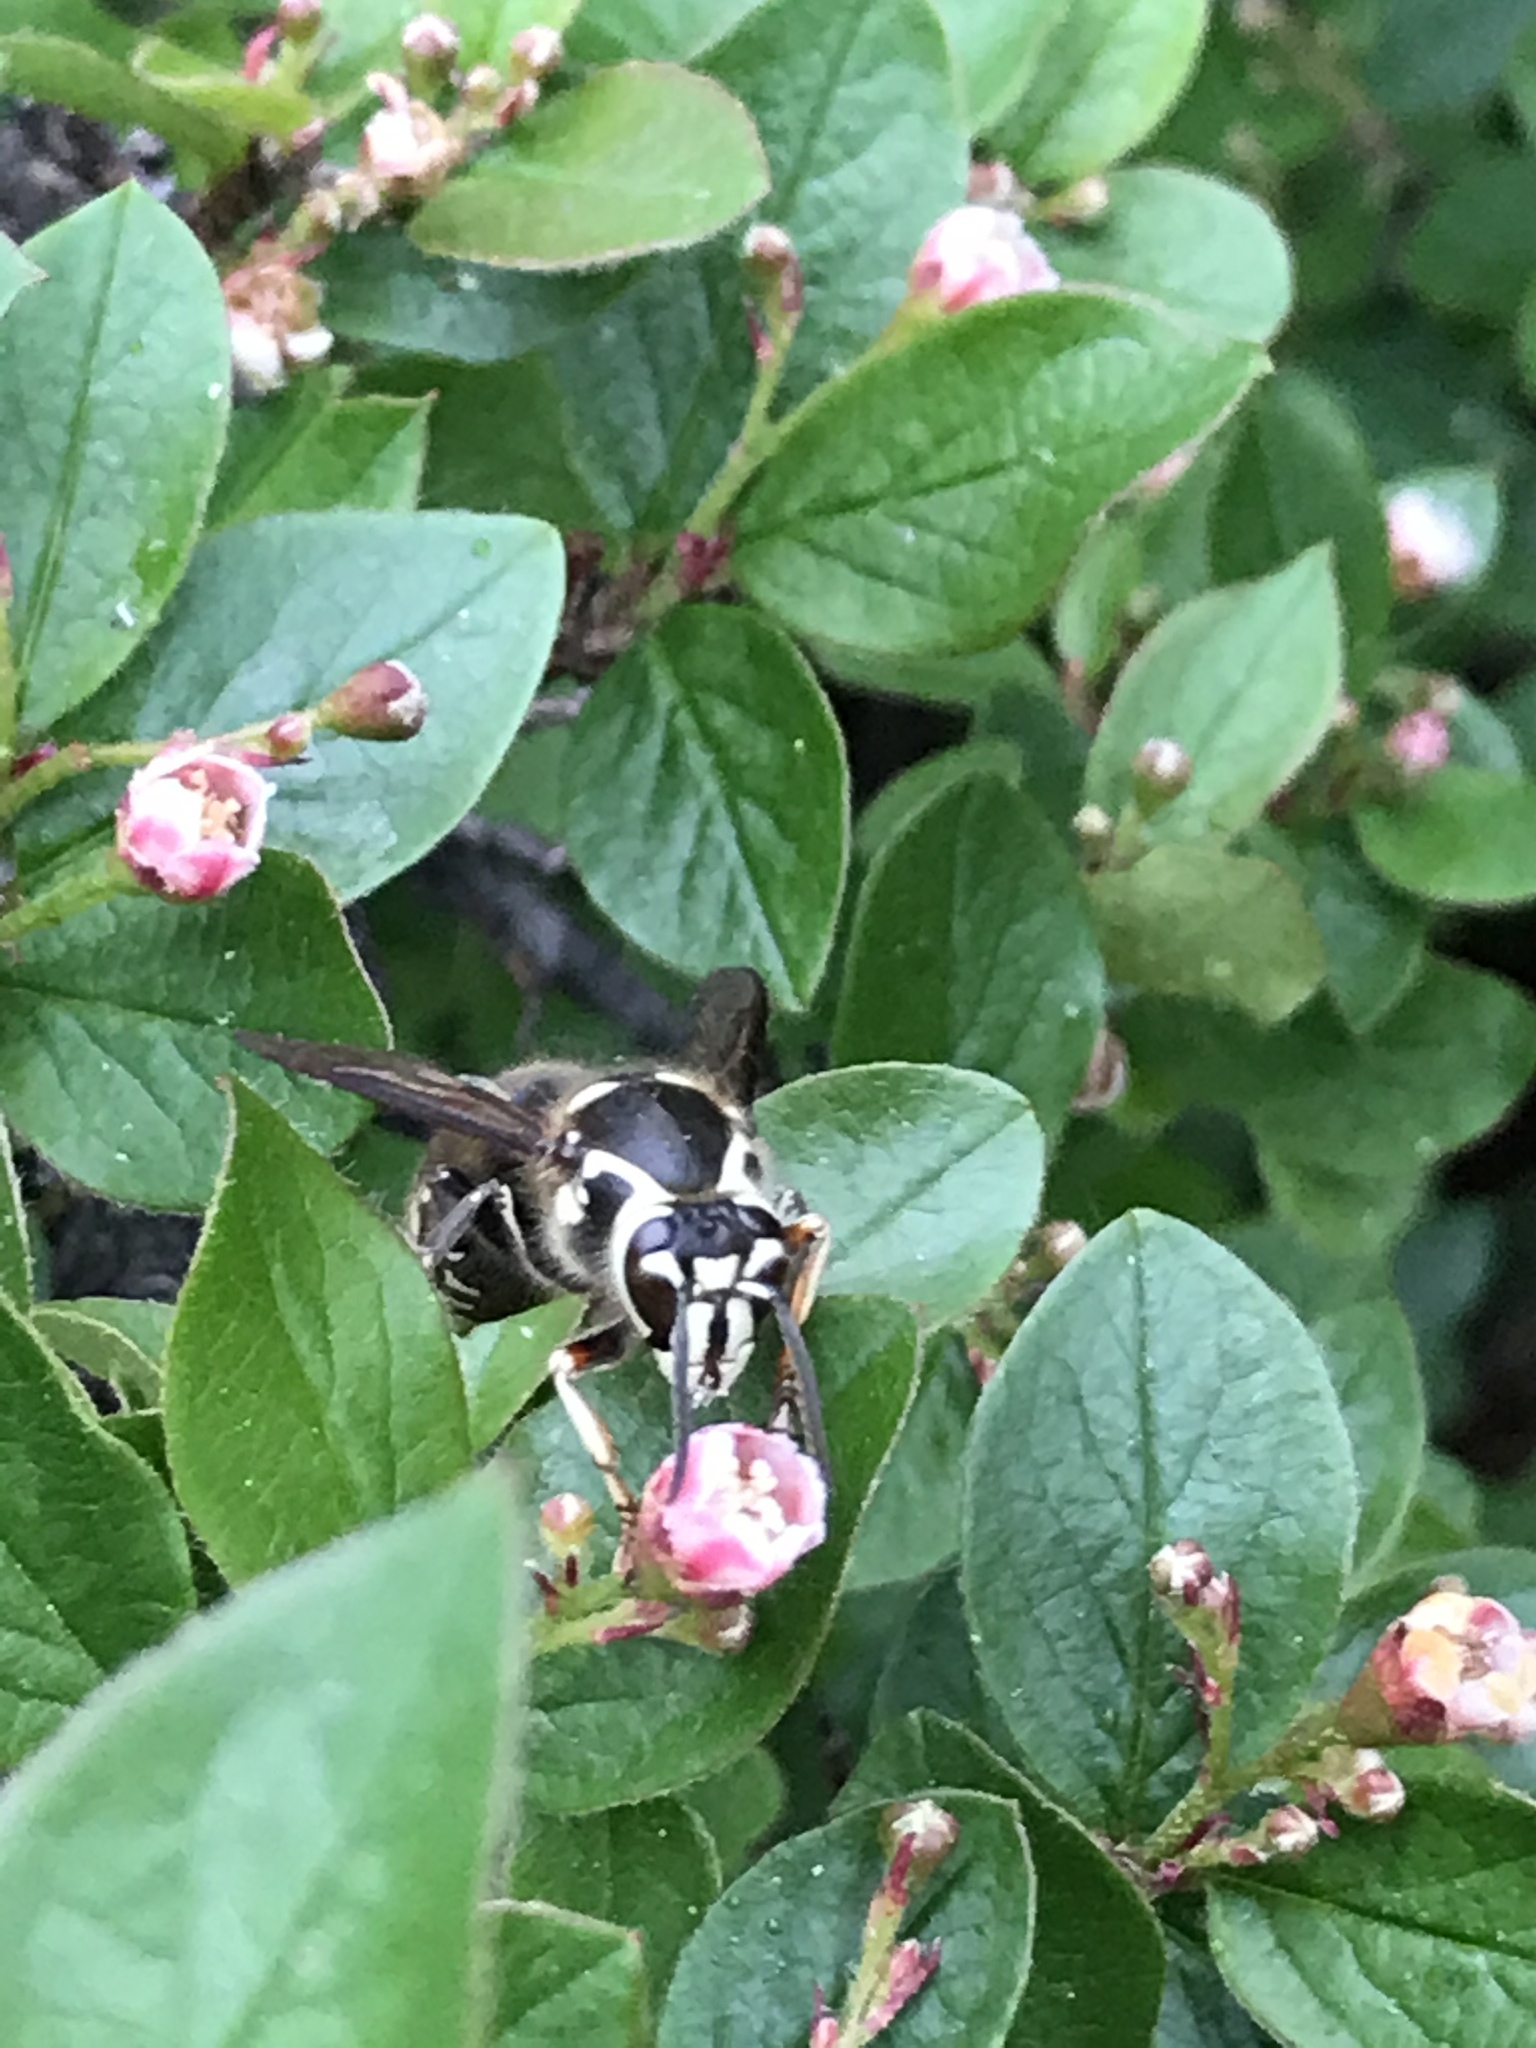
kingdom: Animalia
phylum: Arthropoda
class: Insecta
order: Hymenoptera
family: Vespidae
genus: Dolichovespula
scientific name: Dolichovespula maculata
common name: Bald-faced hornet
